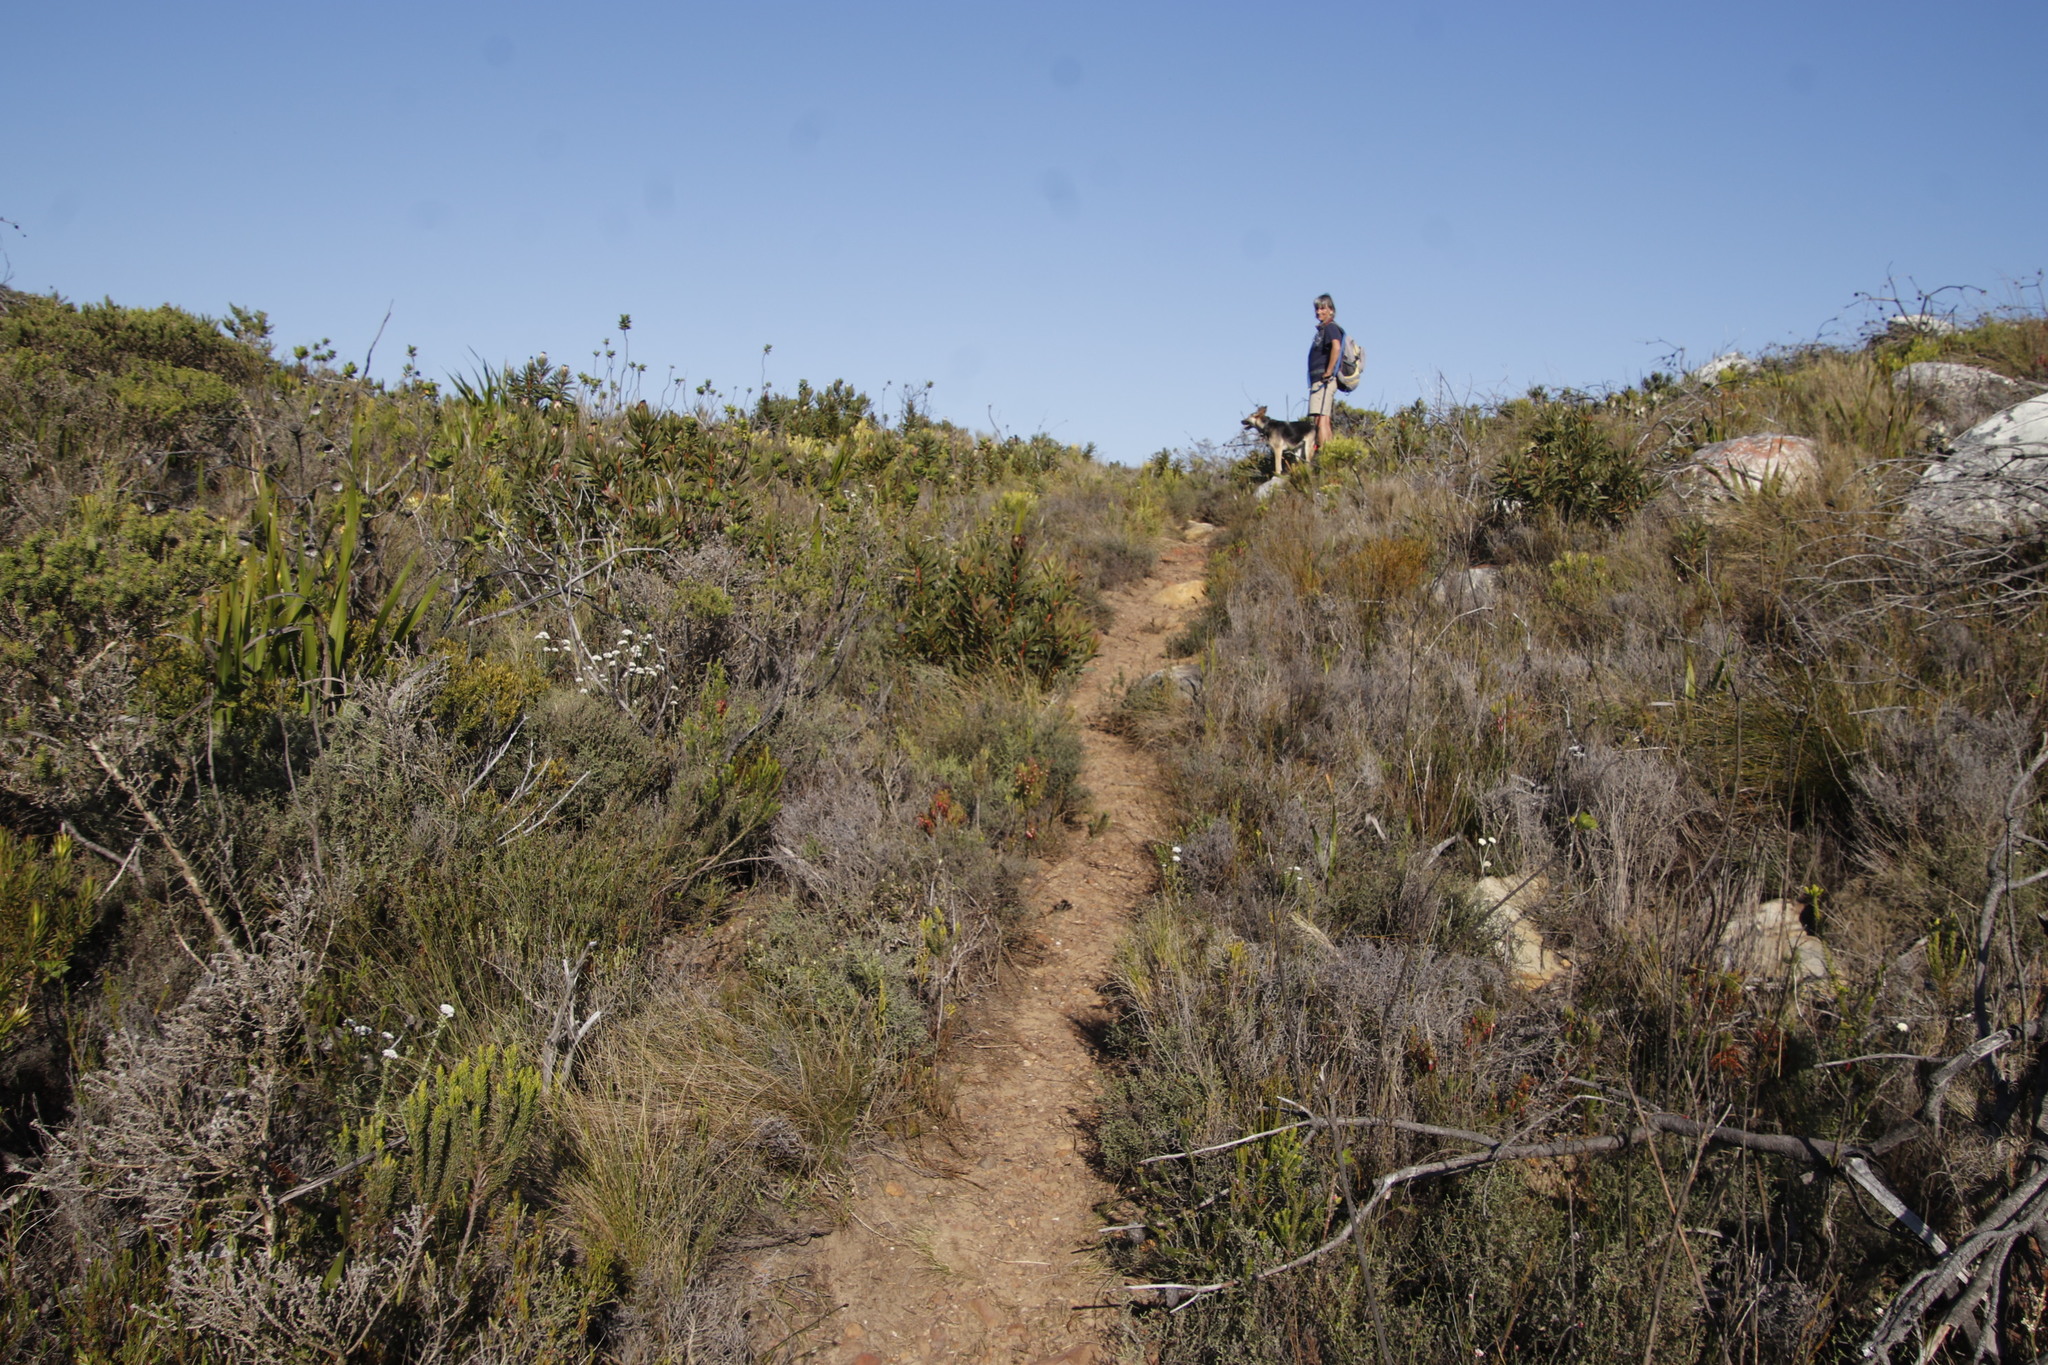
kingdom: Plantae
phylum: Tracheophyta
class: Magnoliopsida
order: Proteales
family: Proteaceae
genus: Protea
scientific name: Protea lepidocarpodendron
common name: Black-bearded protea
